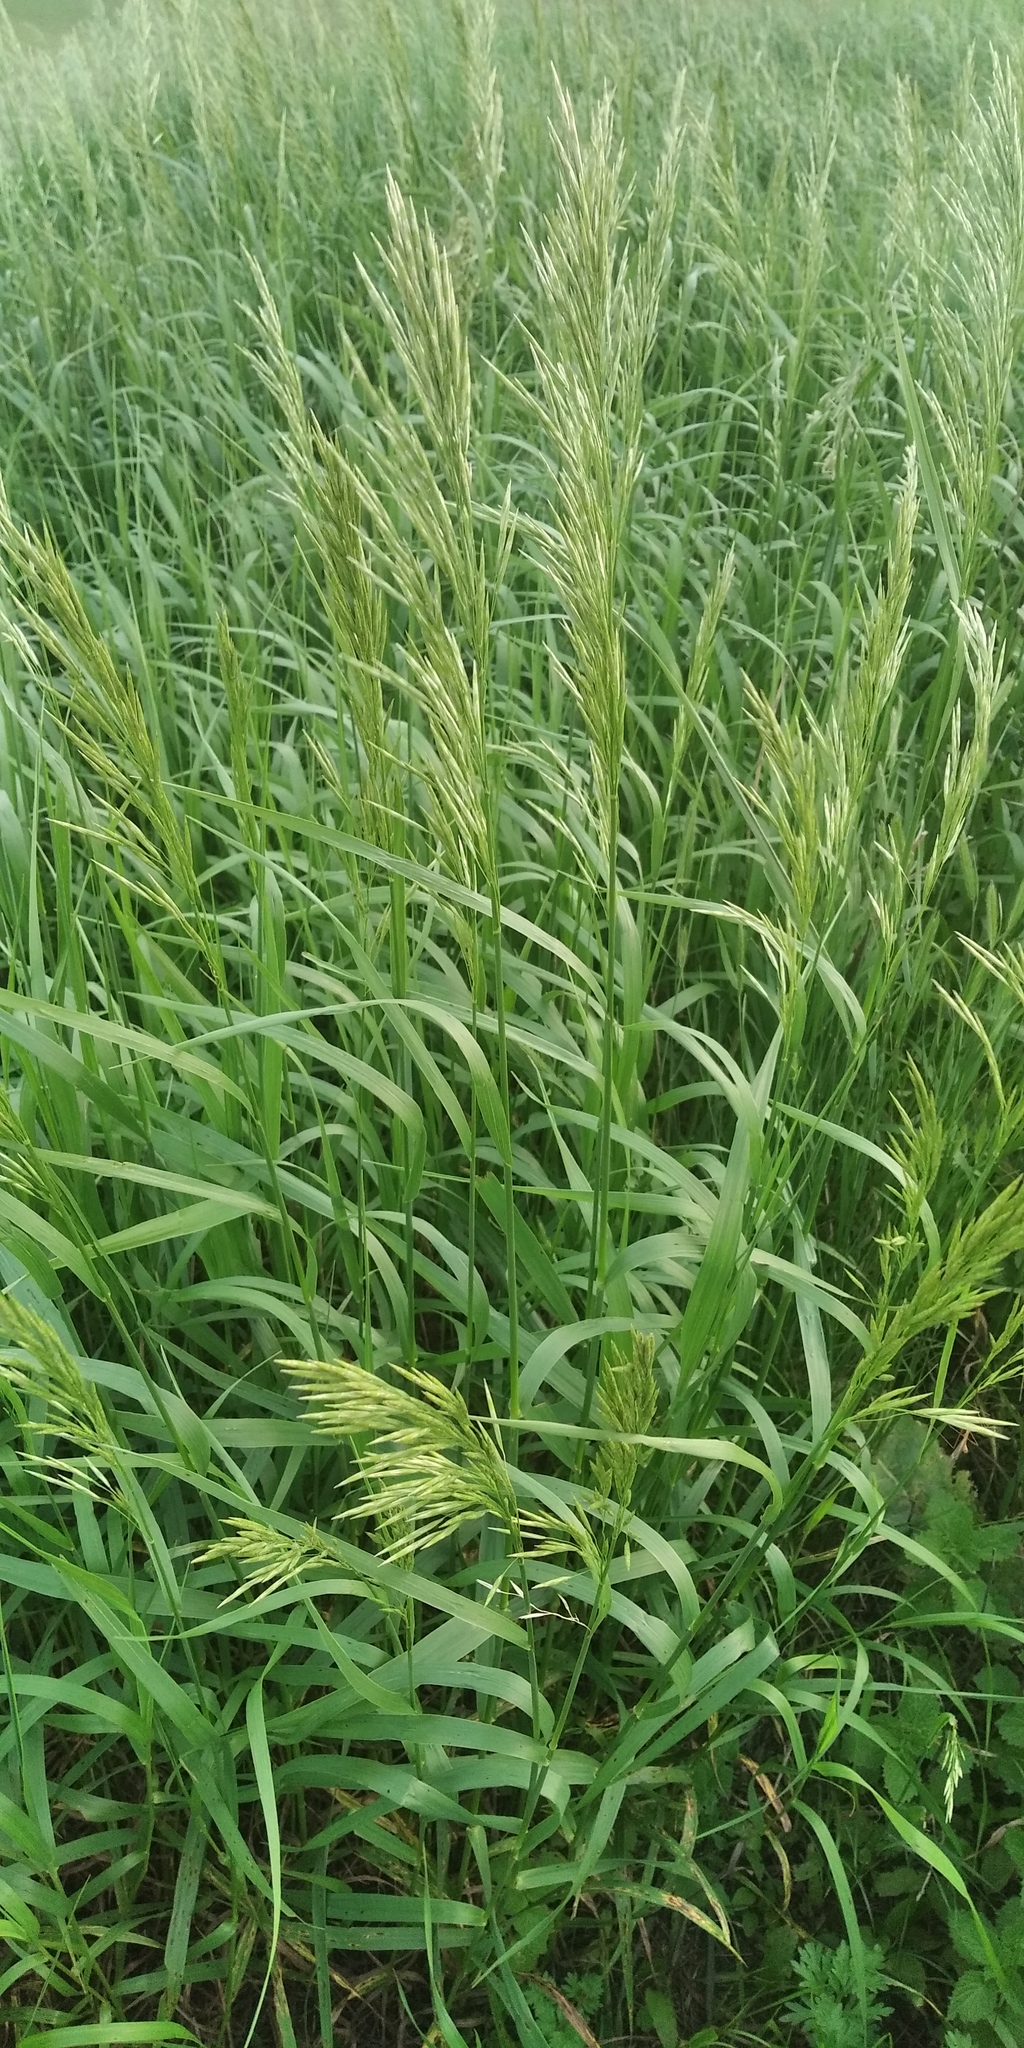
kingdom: Plantae
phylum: Tracheophyta
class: Liliopsida
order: Poales
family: Poaceae
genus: Bromus
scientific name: Bromus inermis
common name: Smooth brome
